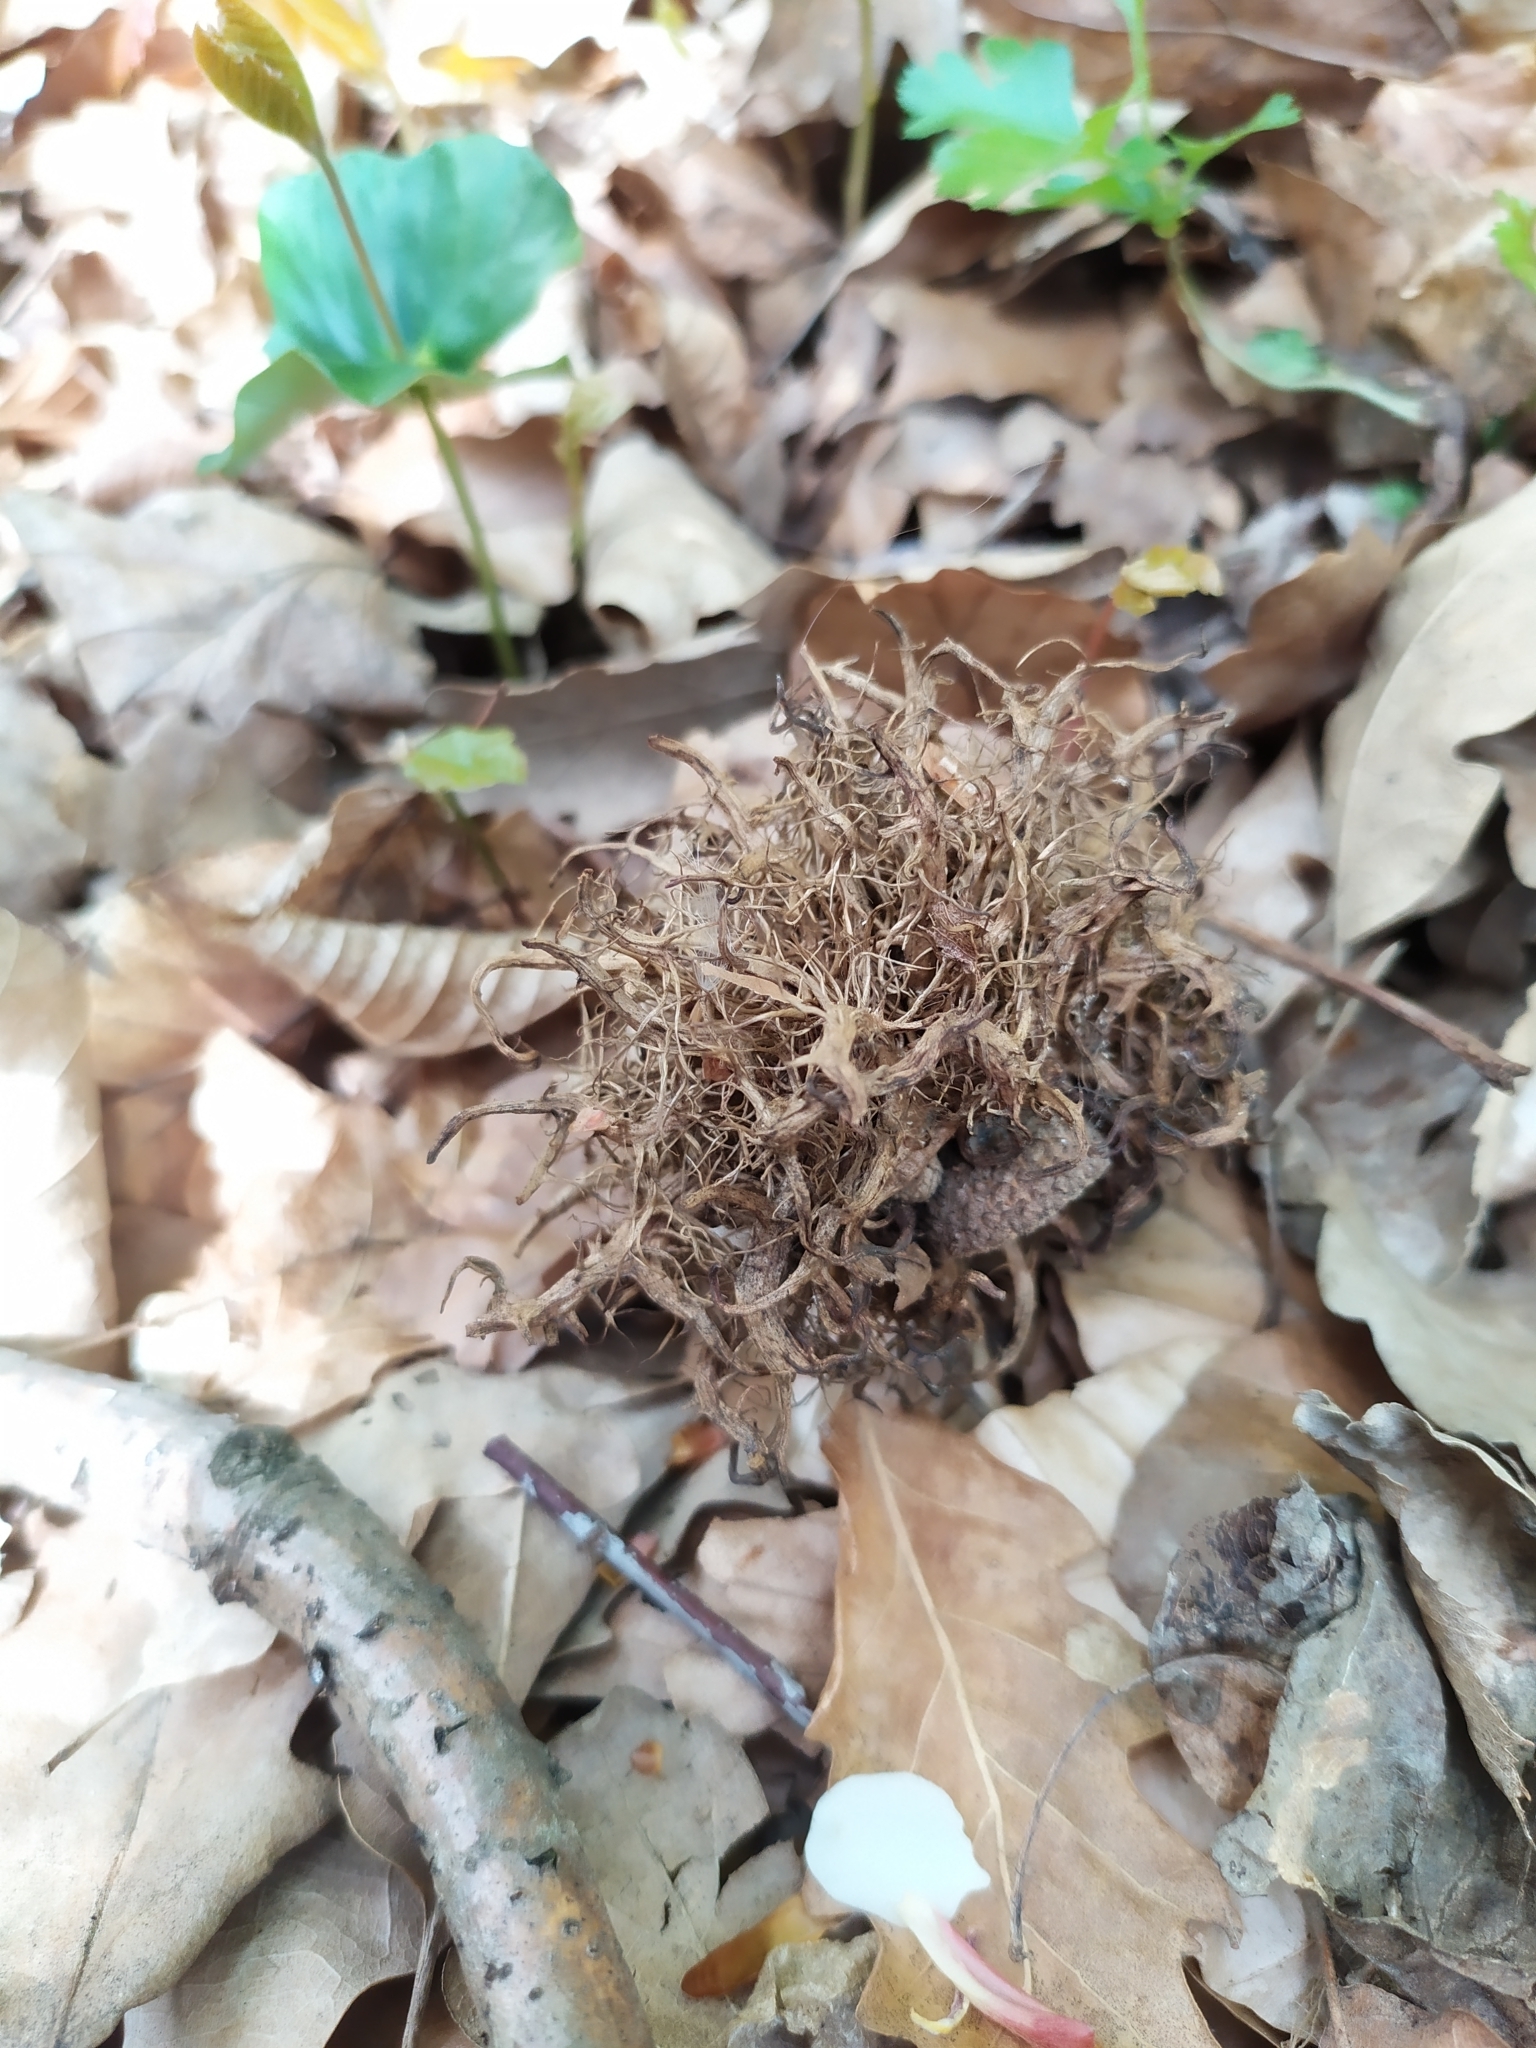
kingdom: Animalia
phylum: Arthropoda
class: Insecta
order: Hymenoptera
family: Cynipidae
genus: Andricus
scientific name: Andricus caputmedusae
